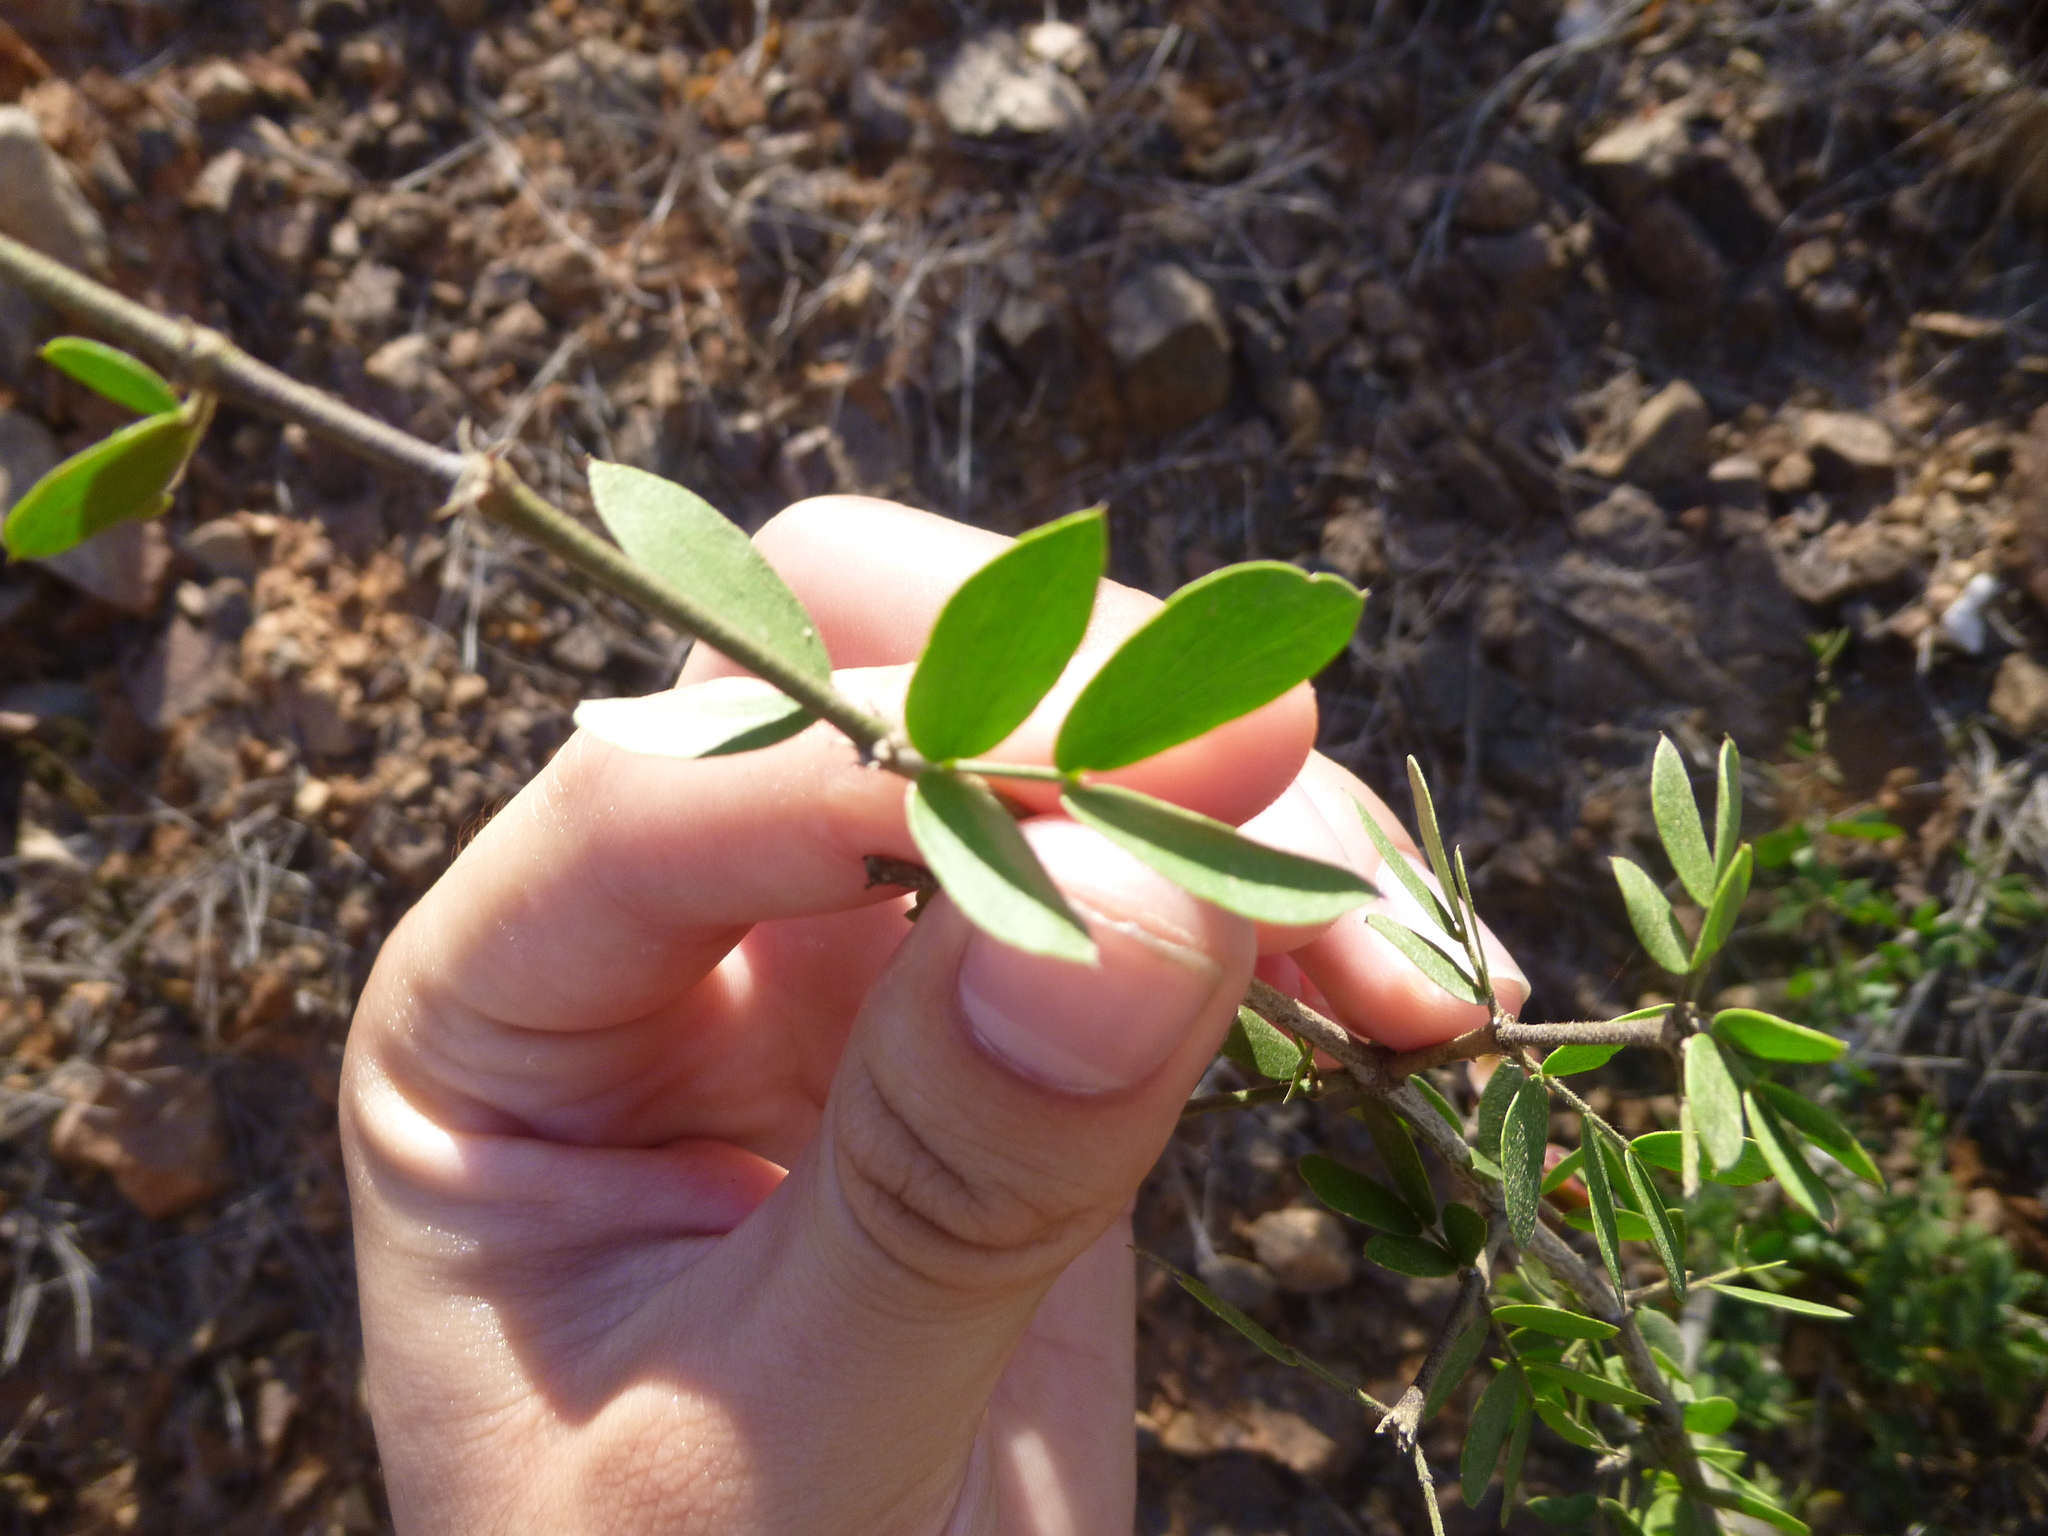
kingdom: Plantae
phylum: Tracheophyta
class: Magnoliopsida
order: Zygophyllales
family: Zygophyllaceae
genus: Guaiacum
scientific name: Guaiacum coulteri
